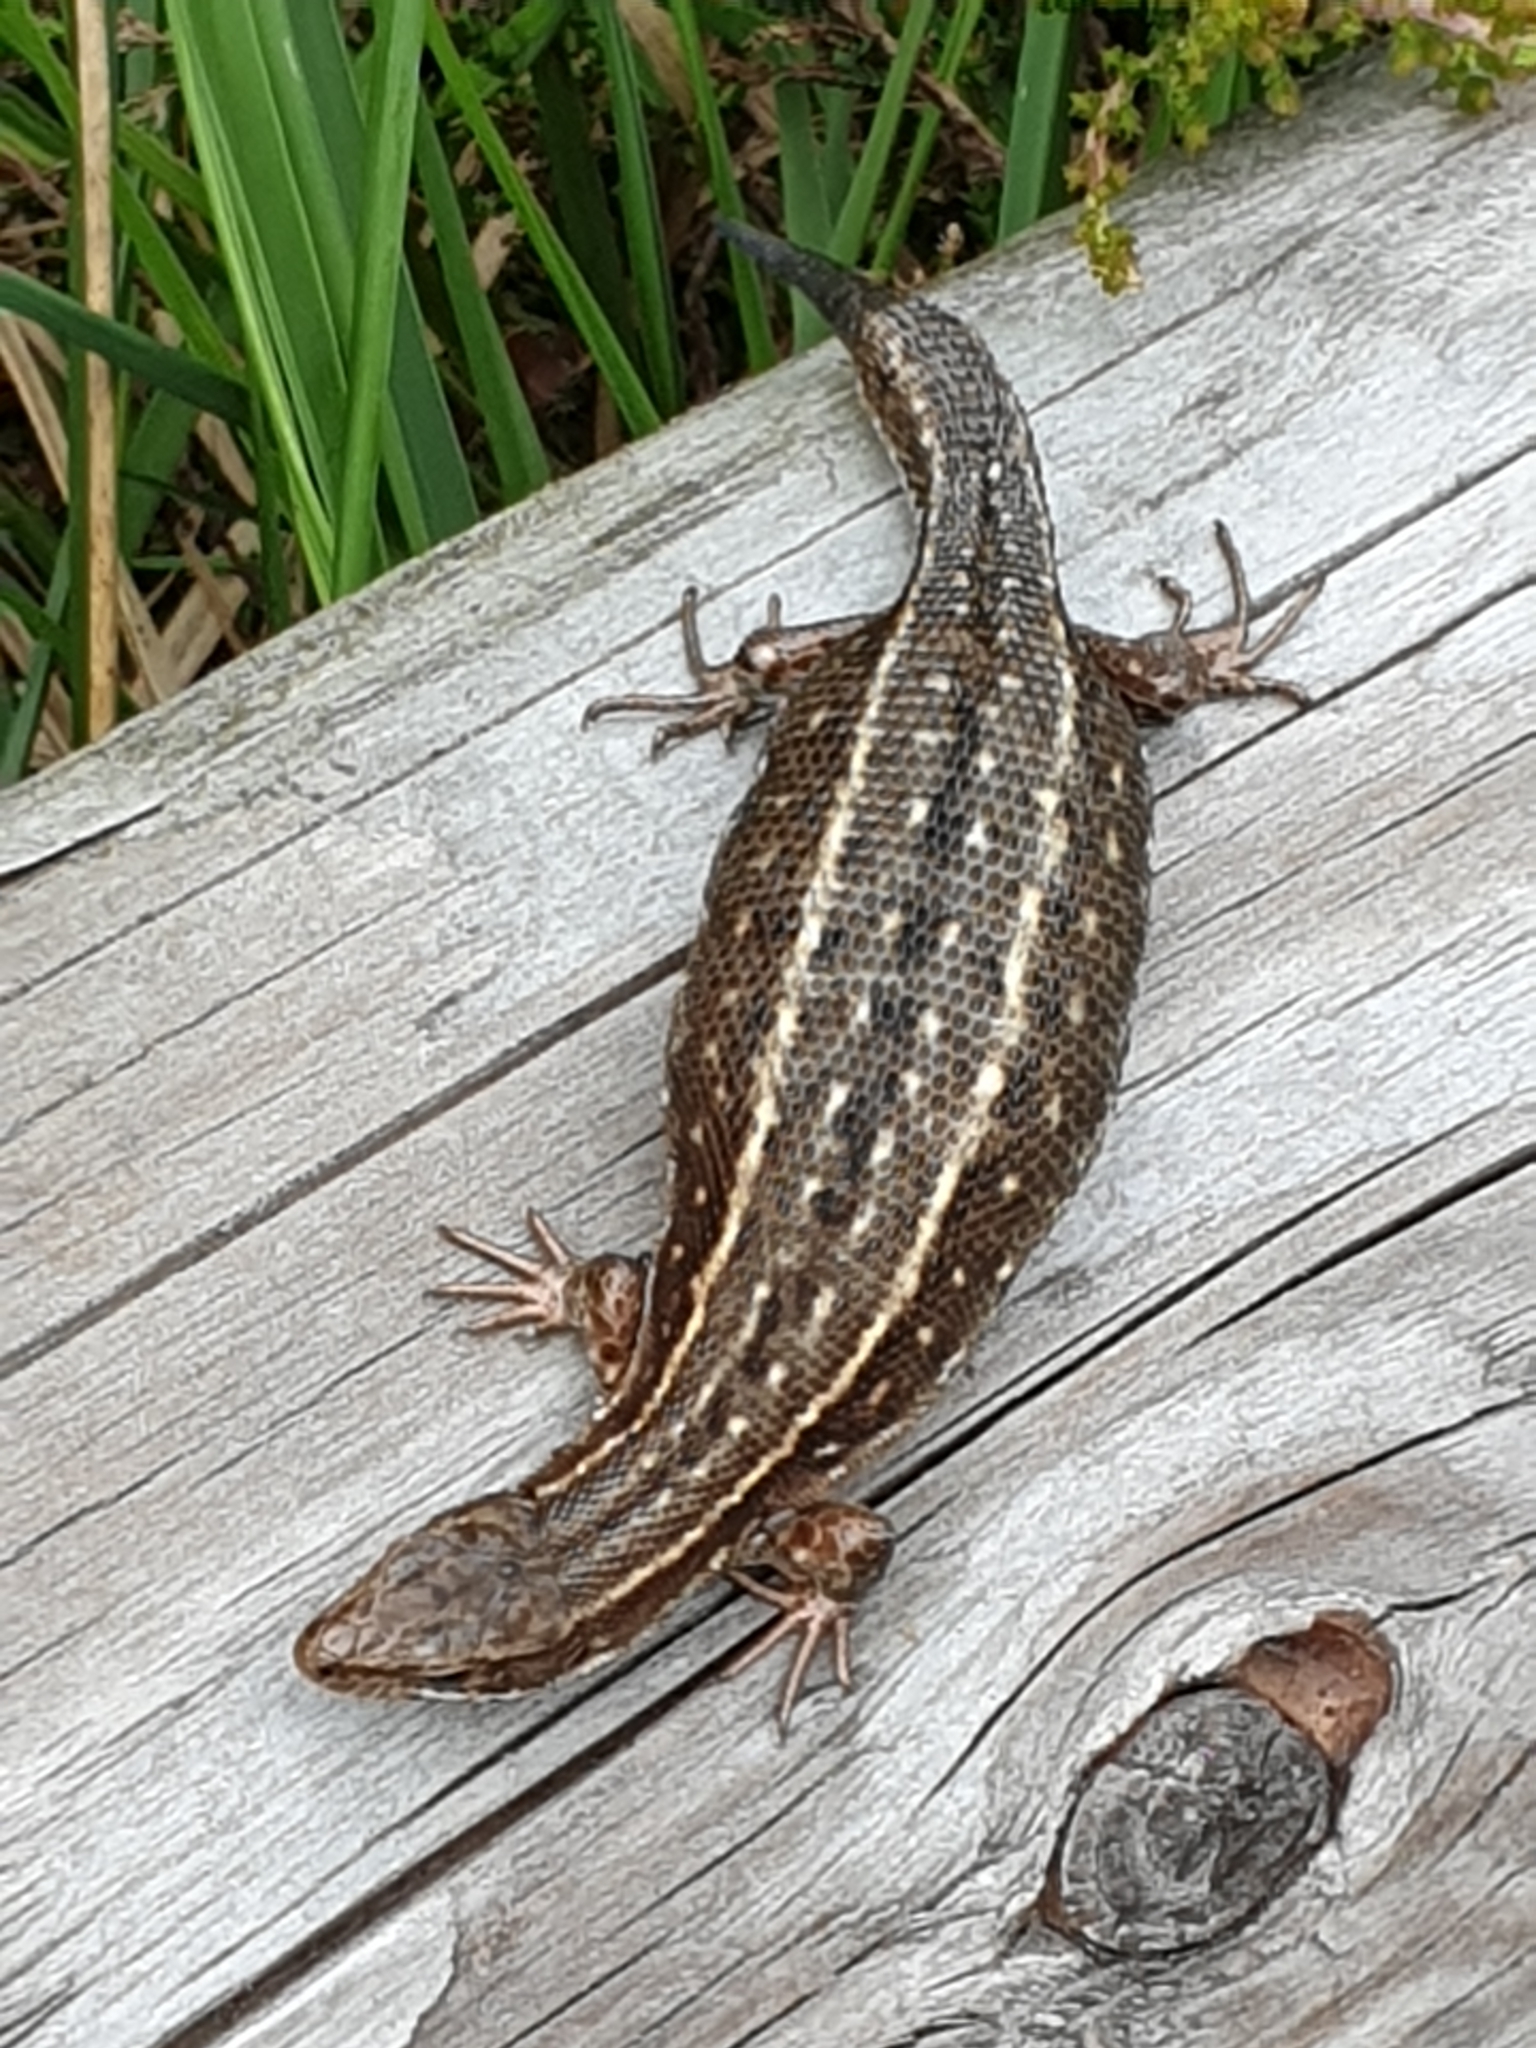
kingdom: Animalia
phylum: Chordata
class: Squamata
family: Lacertidae
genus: Zootoca
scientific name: Zootoca vivipara
